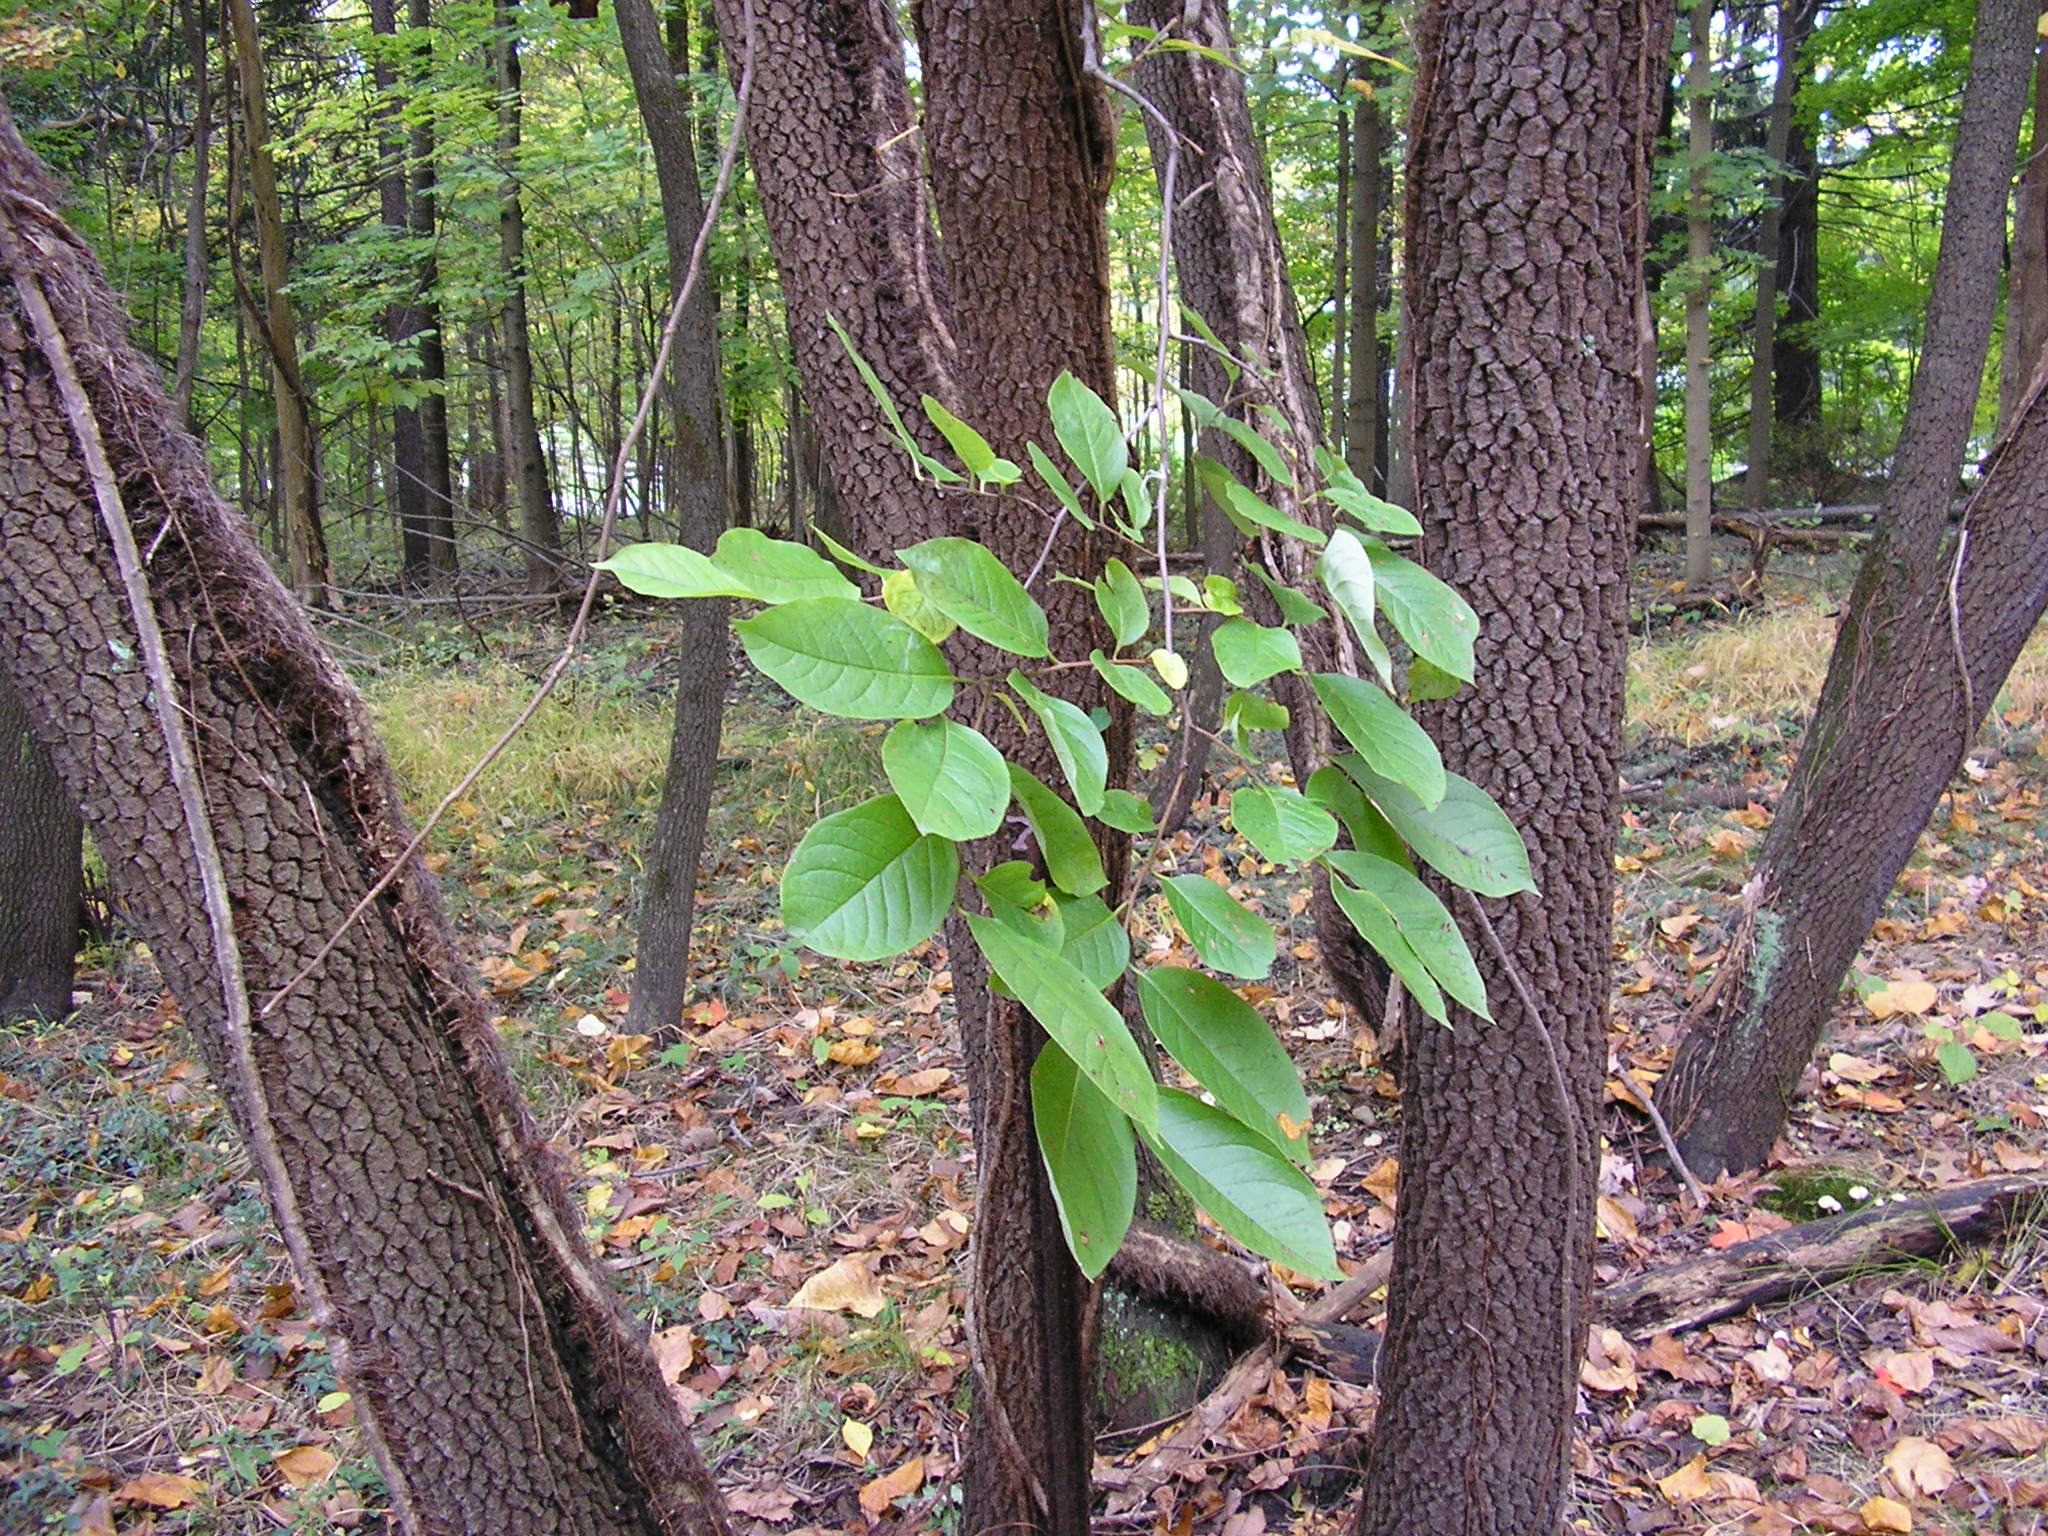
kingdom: Plantae
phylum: Tracheophyta
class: Magnoliopsida
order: Ericales
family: Ebenaceae
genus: Diospyros
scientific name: Diospyros virginiana
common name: Persimmon
